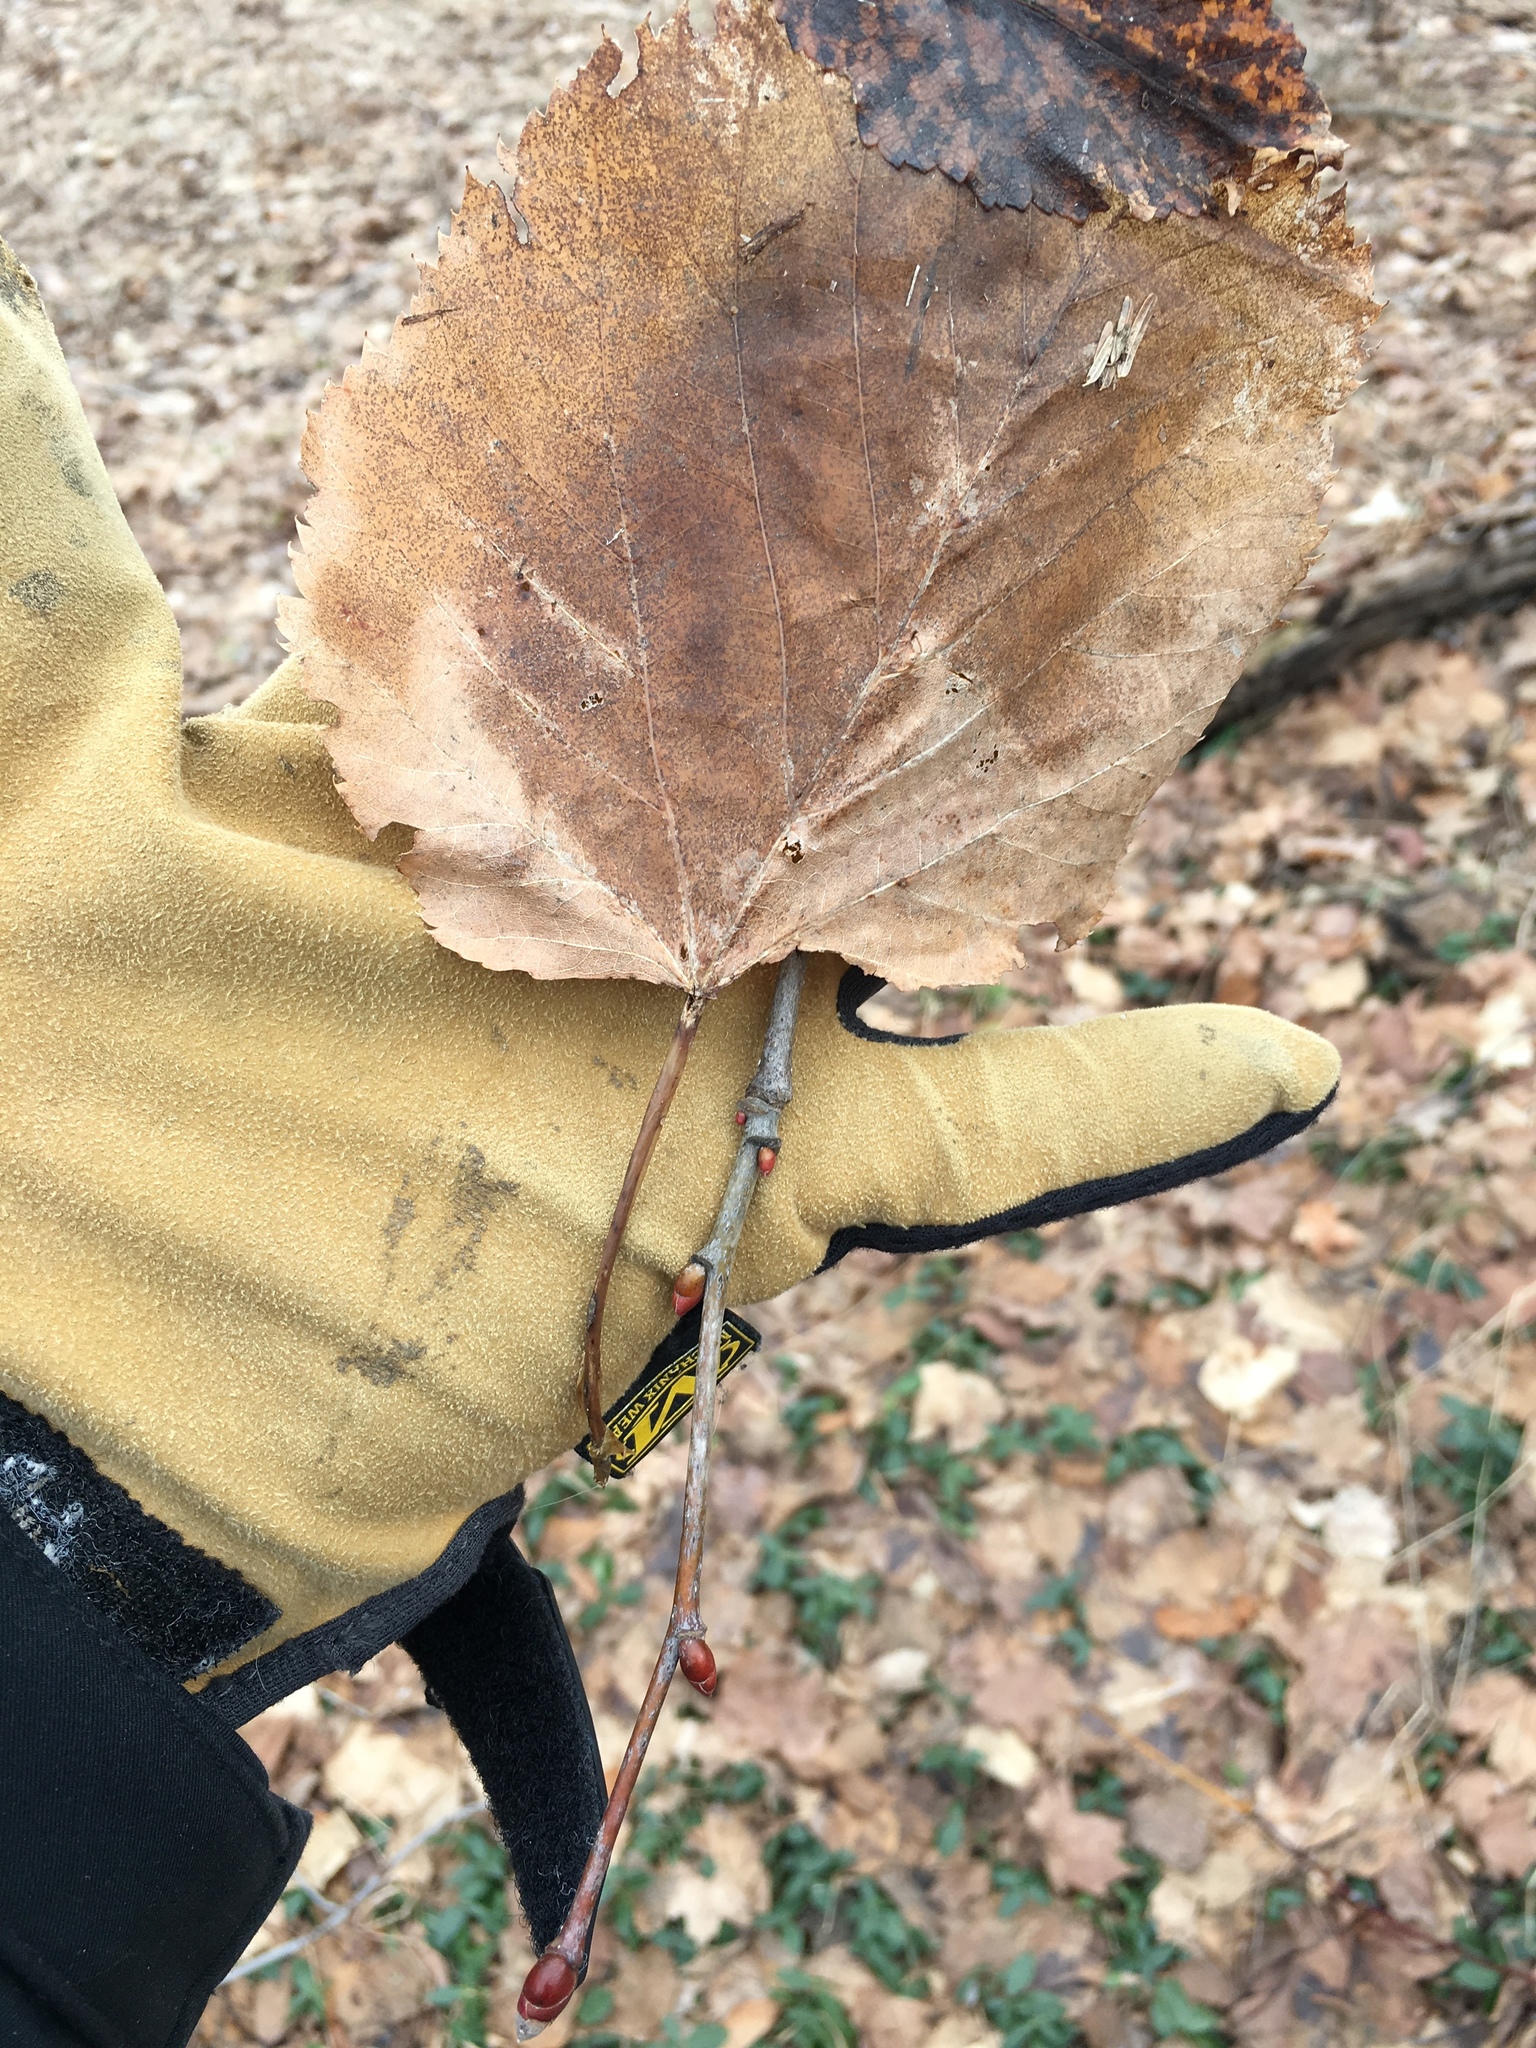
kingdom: Plantae
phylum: Tracheophyta
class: Magnoliopsida
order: Malvales
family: Malvaceae
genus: Tilia
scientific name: Tilia americana
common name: Basswood
